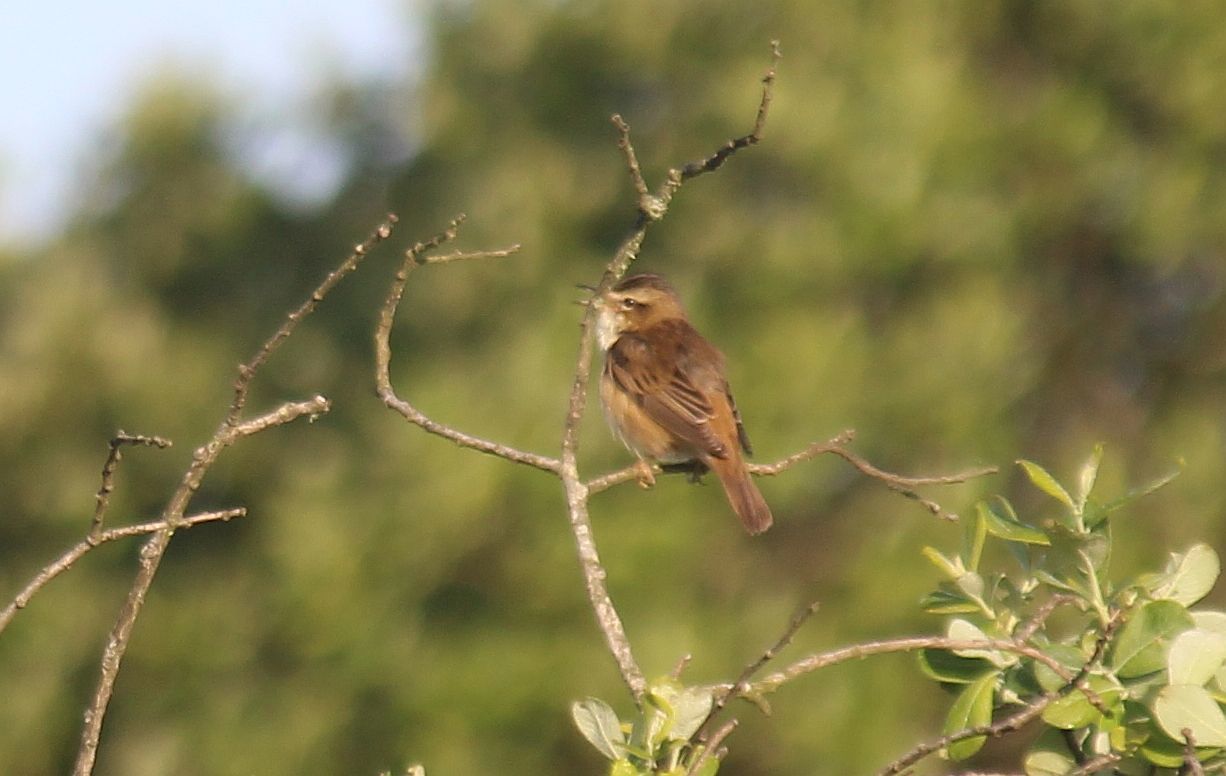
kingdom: Animalia
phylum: Chordata
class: Aves
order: Passeriformes
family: Acrocephalidae
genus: Acrocephalus
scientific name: Acrocephalus schoenobaenus
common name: Sedge warbler
